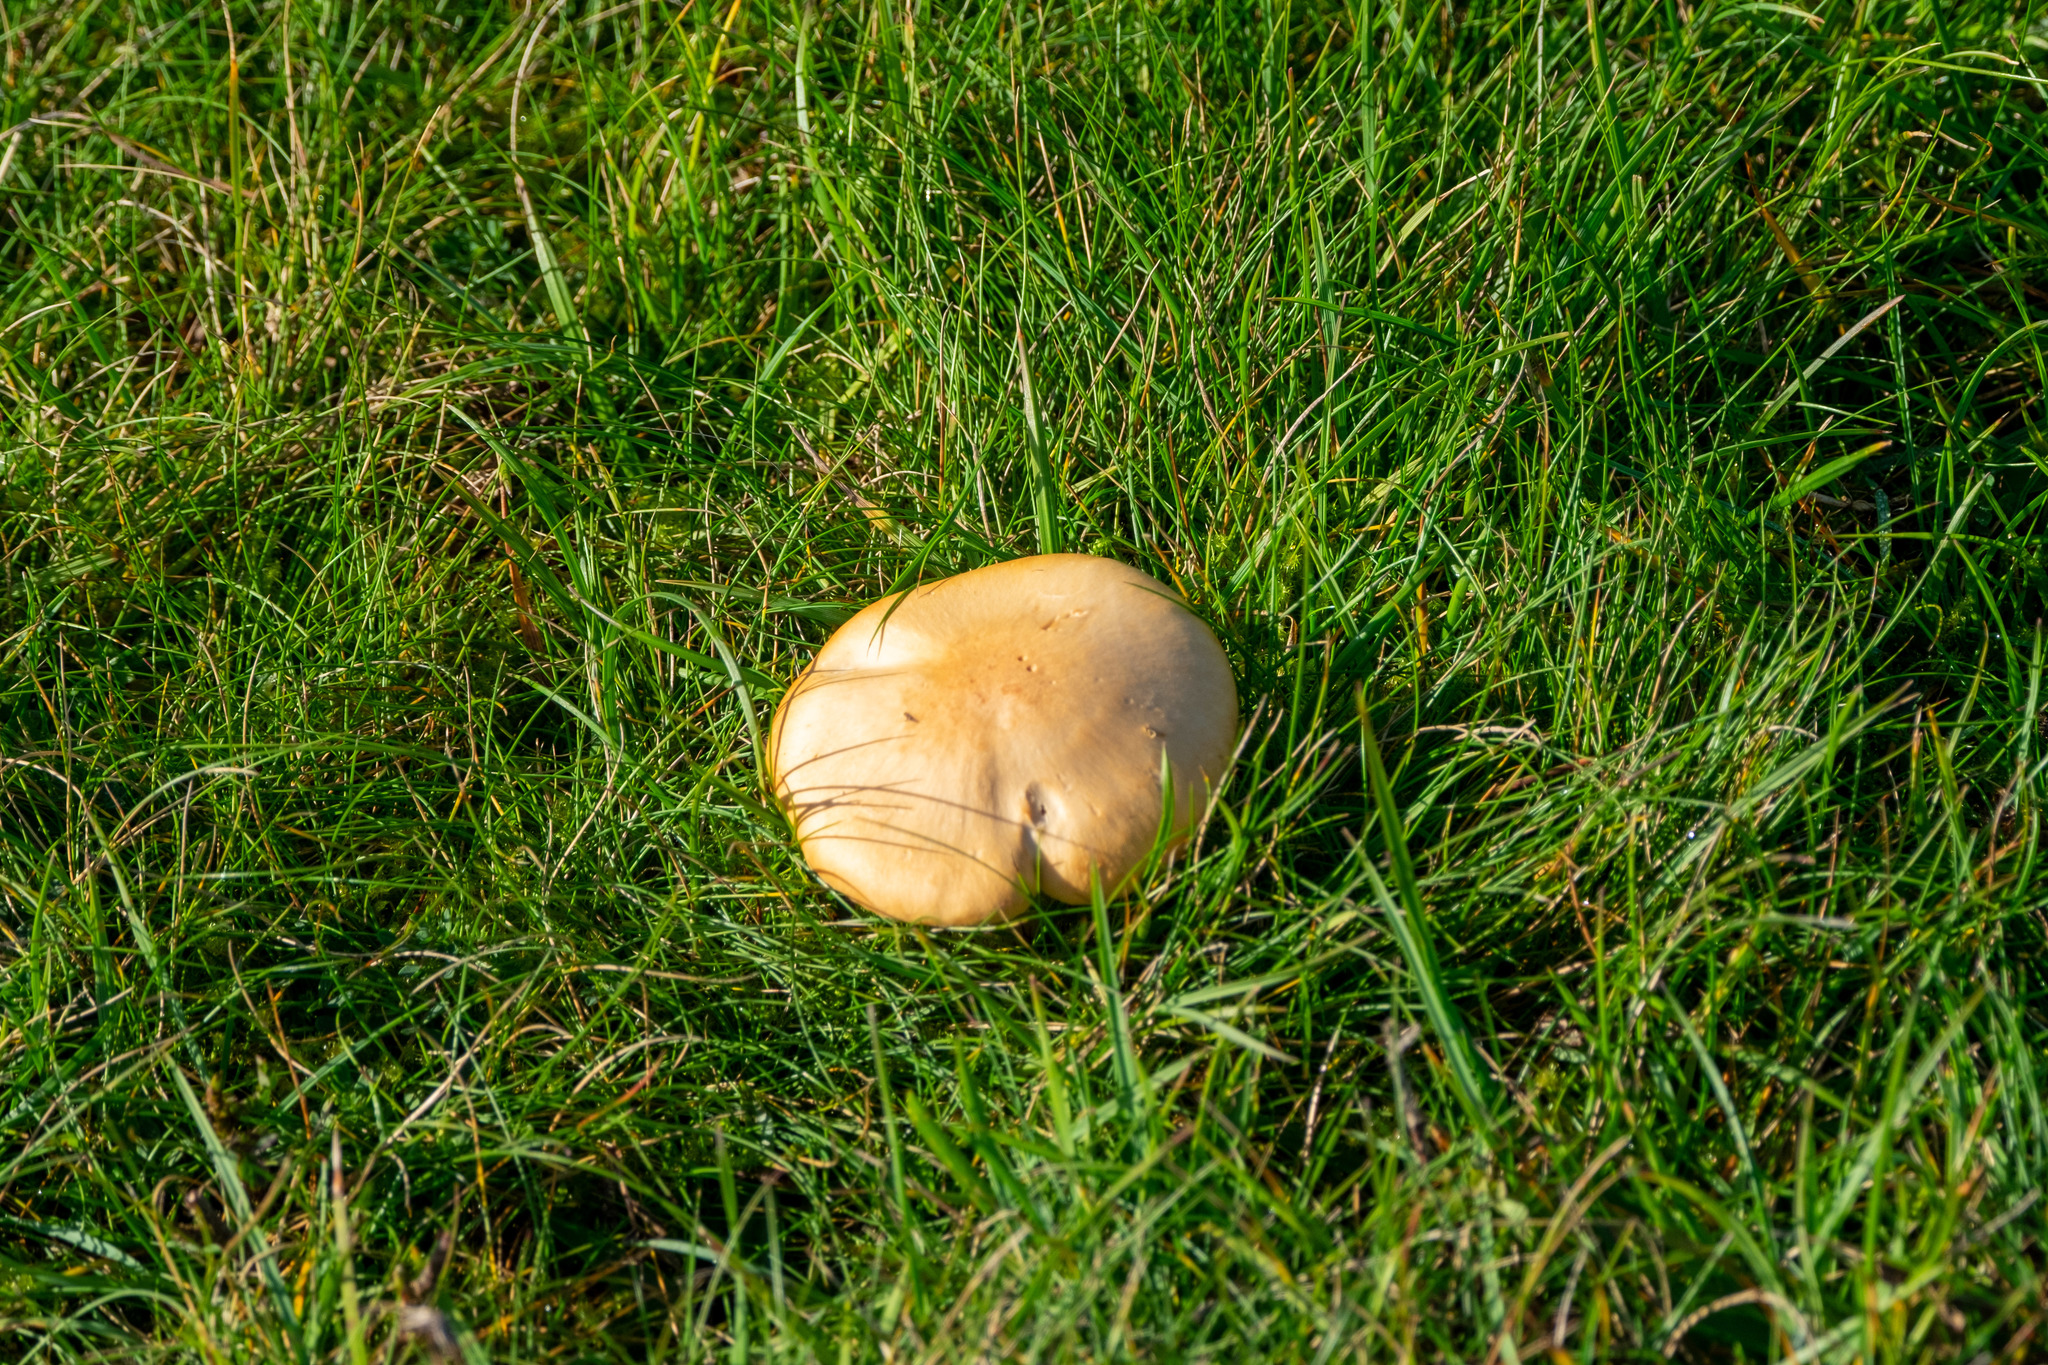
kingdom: Fungi
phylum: Basidiomycota
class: Agaricomycetes
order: Agaricales
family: Hygrophoraceae
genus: Cuphophyllus
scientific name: Cuphophyllus pratensis
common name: Meadow waxcap
